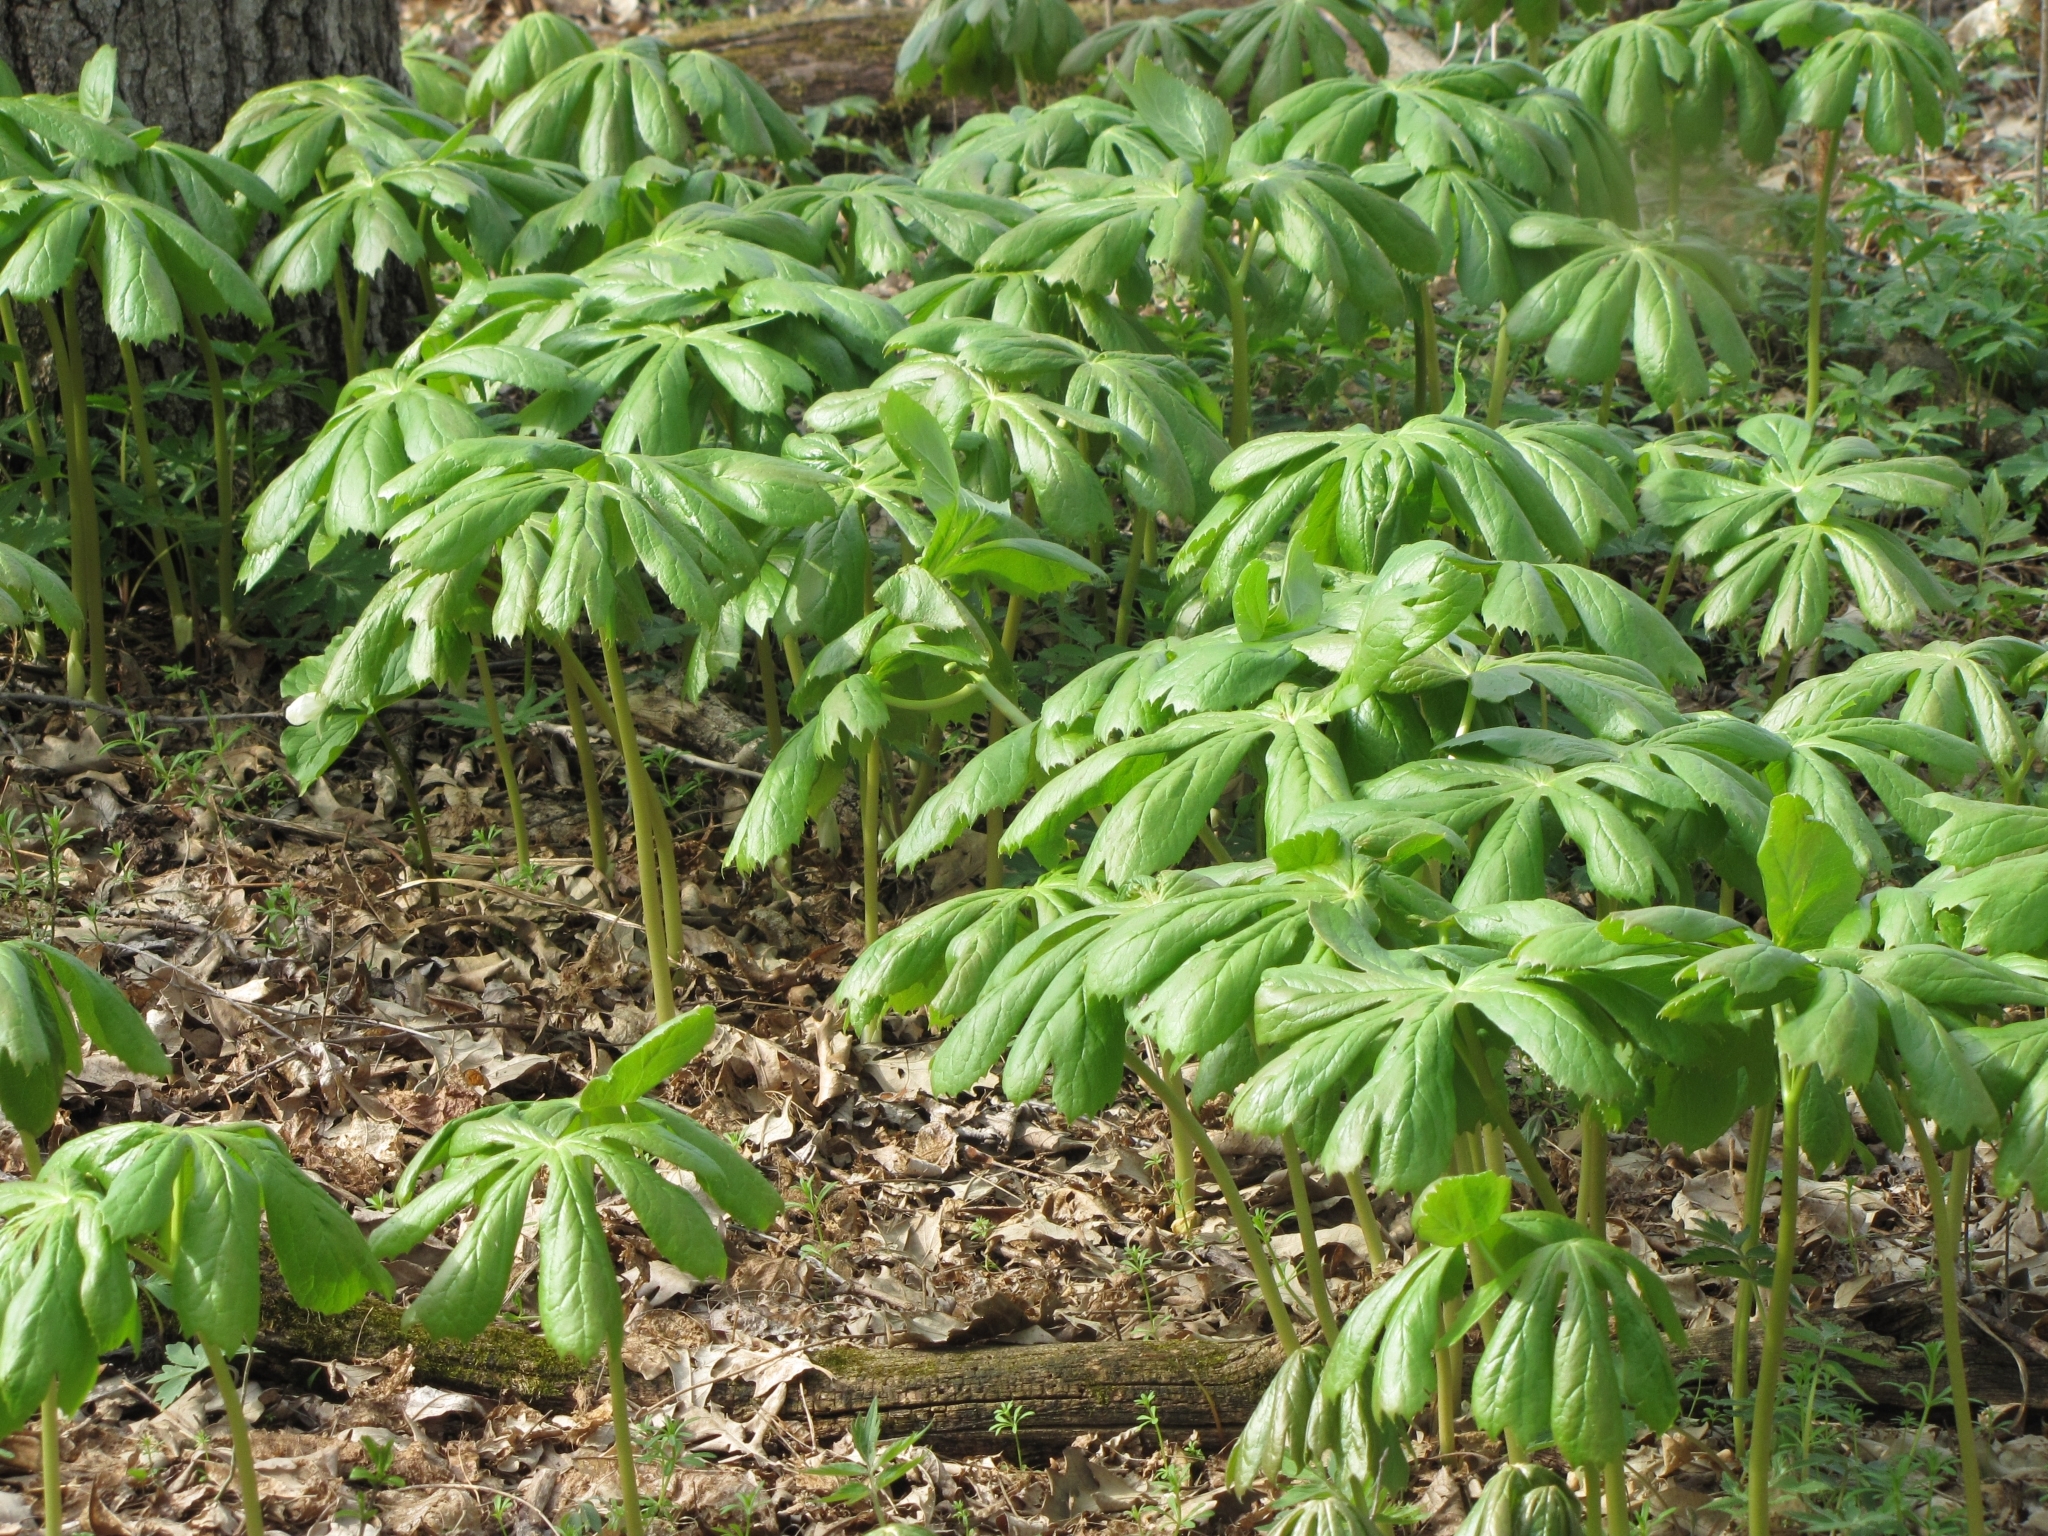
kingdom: Plantae
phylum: Tracheophyta
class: Magnoliopsida
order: Ranunculales
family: Berberidaceae
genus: Podophyllum
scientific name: Podophyllum peltatum
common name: Wild mandrake
